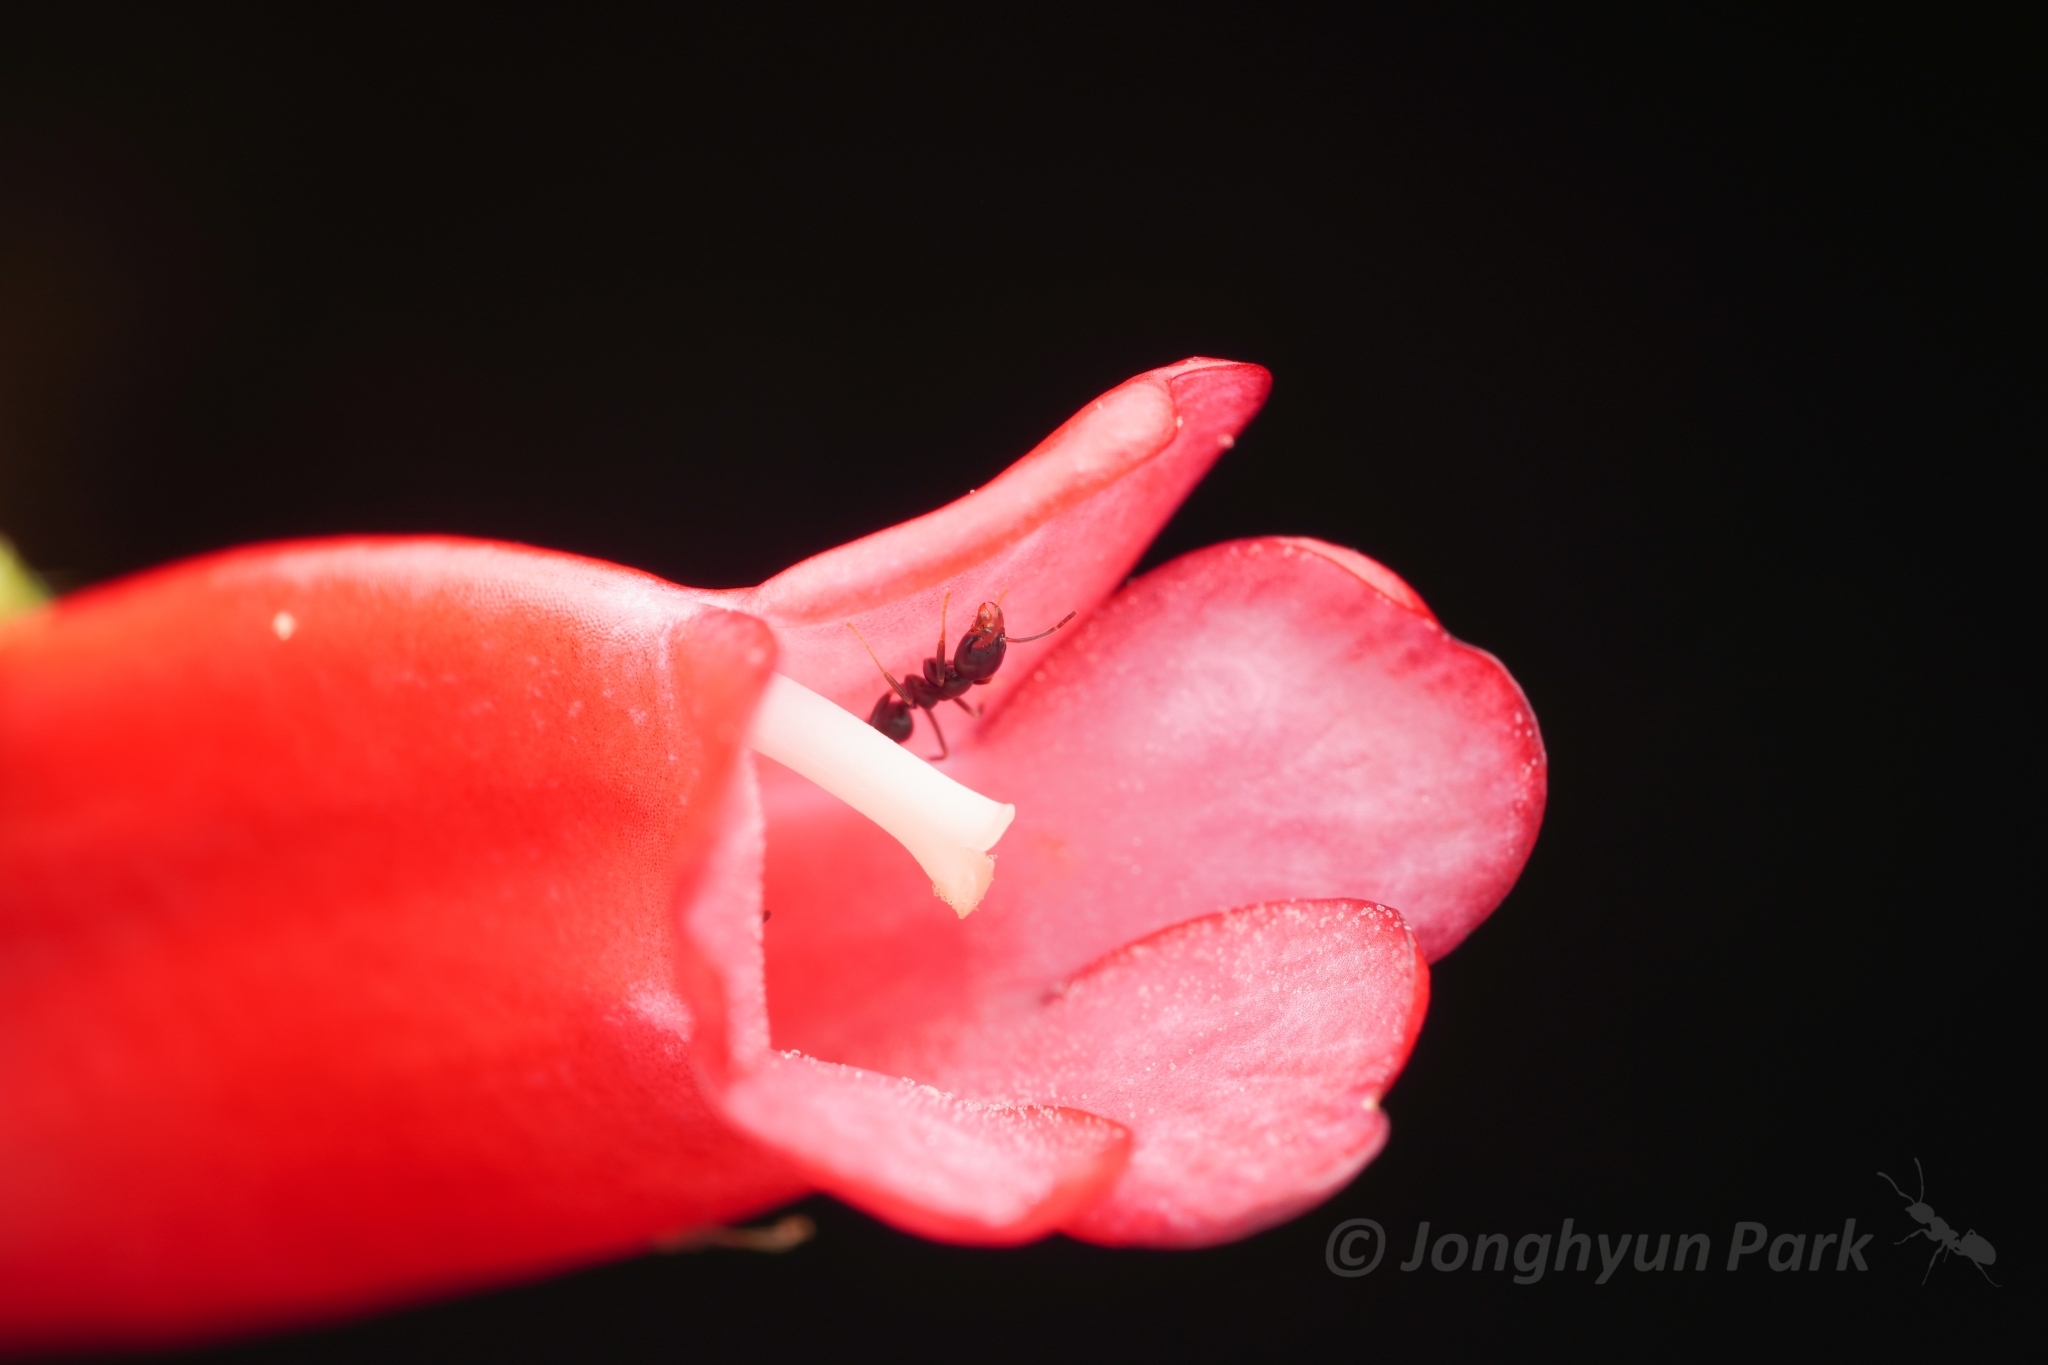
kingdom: Animalia
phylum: Arthropoda
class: Insecta
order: Hymenoptera
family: Formicidae
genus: Linepithema
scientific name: Linepithema neotropicum
